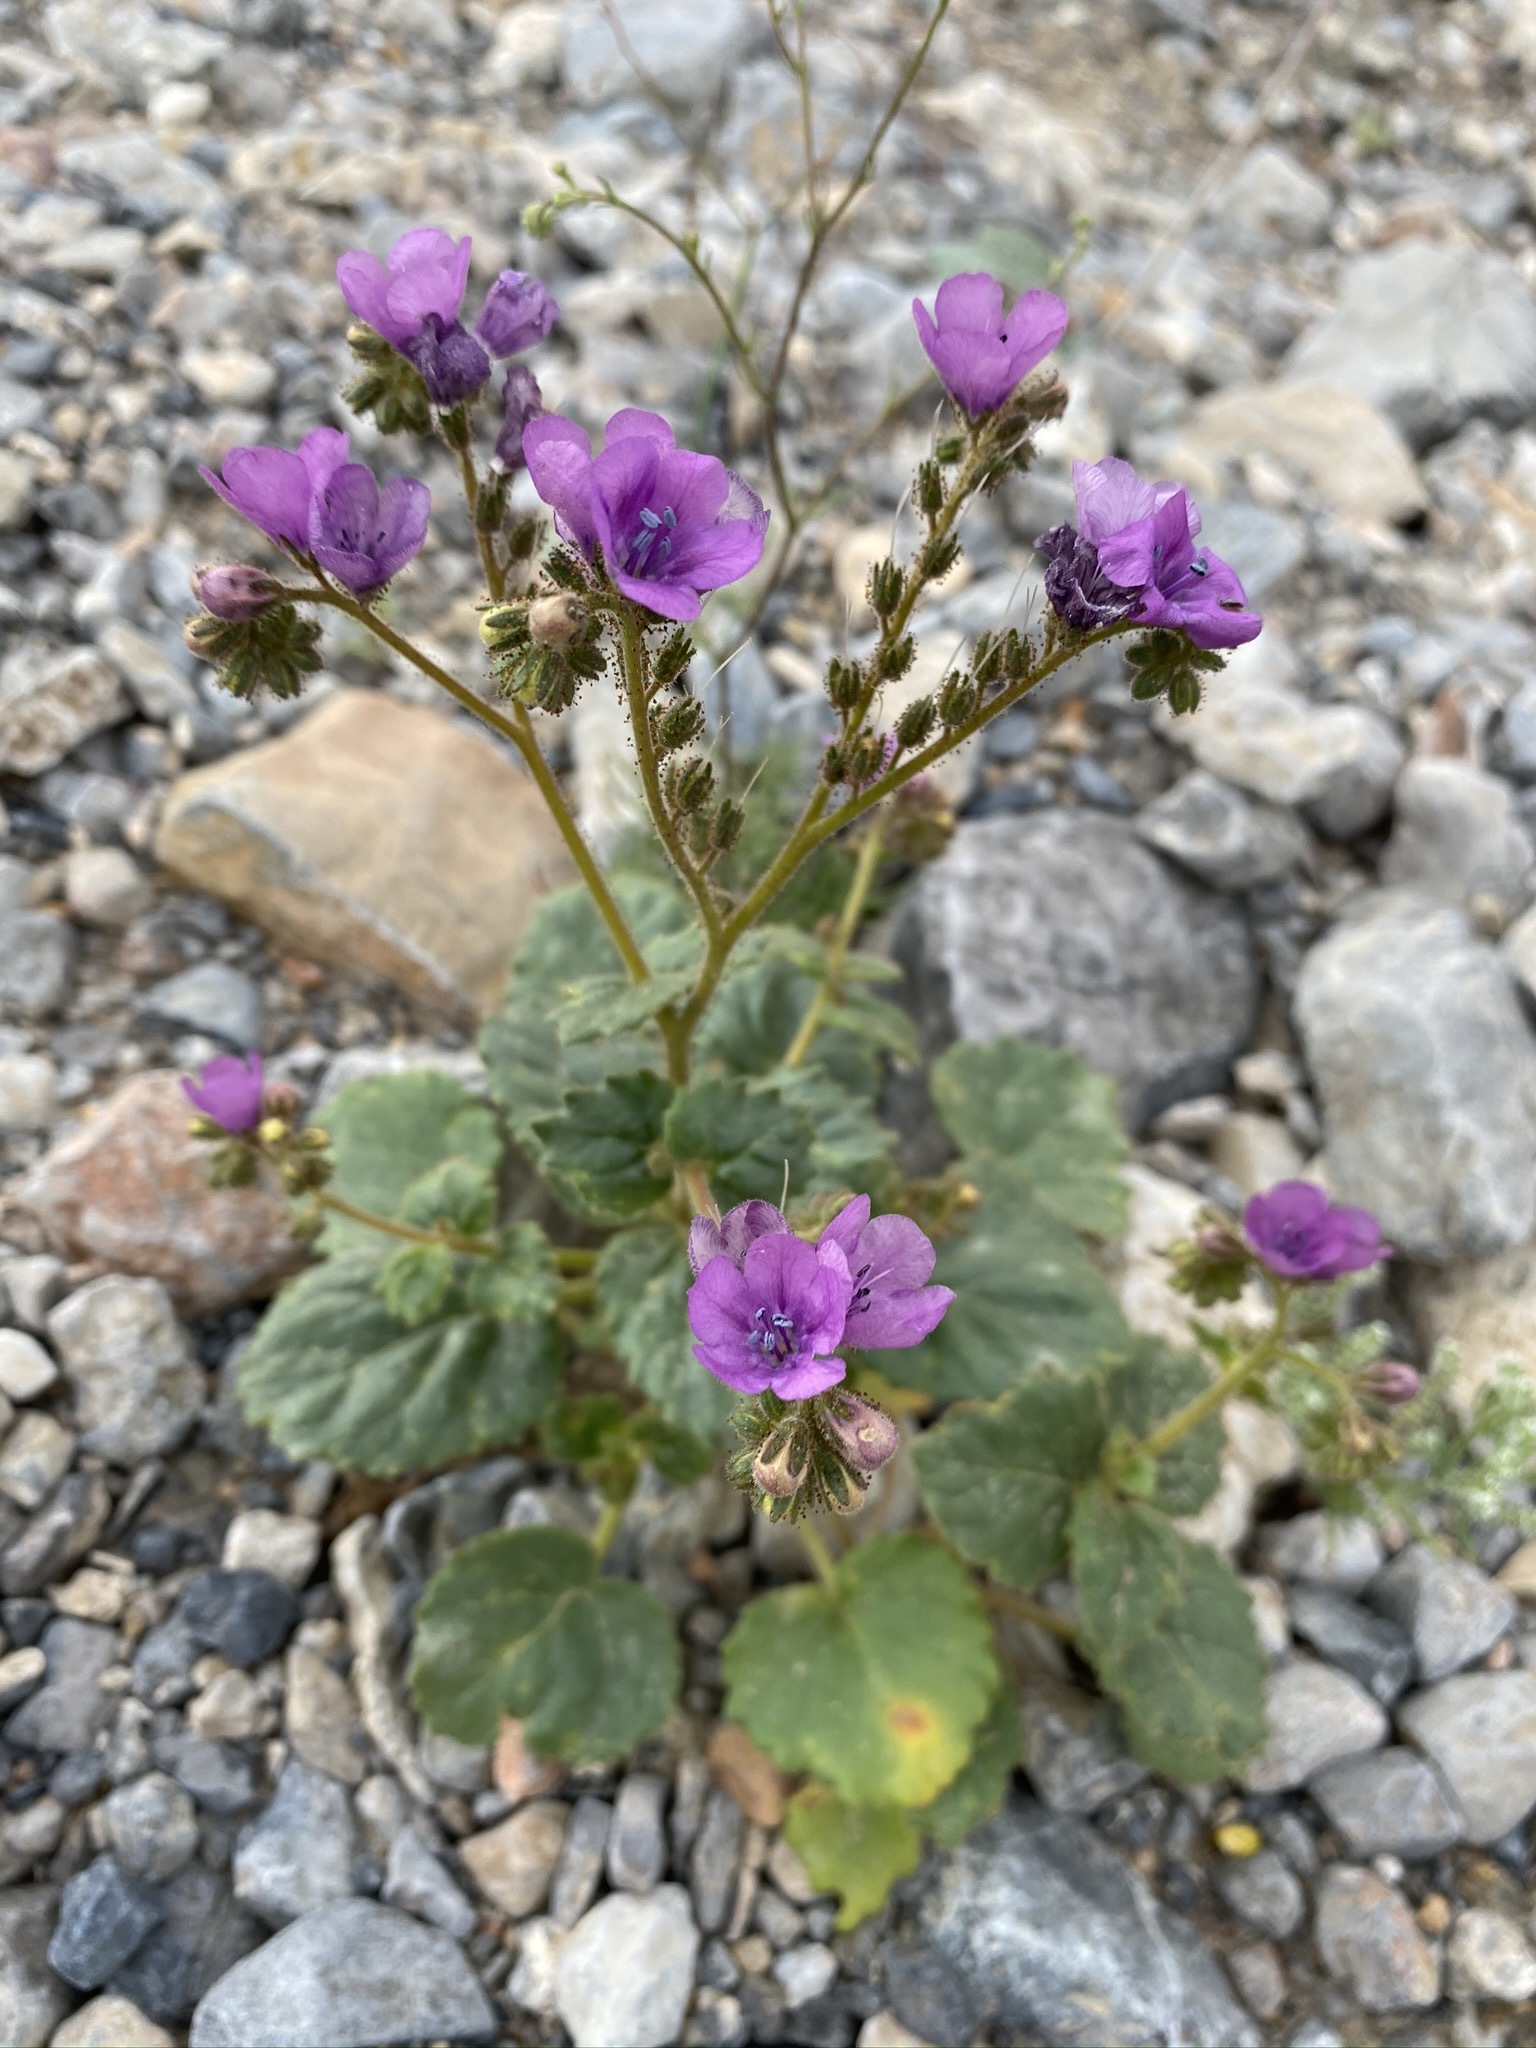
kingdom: Plantae
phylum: Tracheophyta
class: Magnoliopsida
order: Boraginales
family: Hydrophyllaceae
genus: Phacelia
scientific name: Phacelia calthifolia
